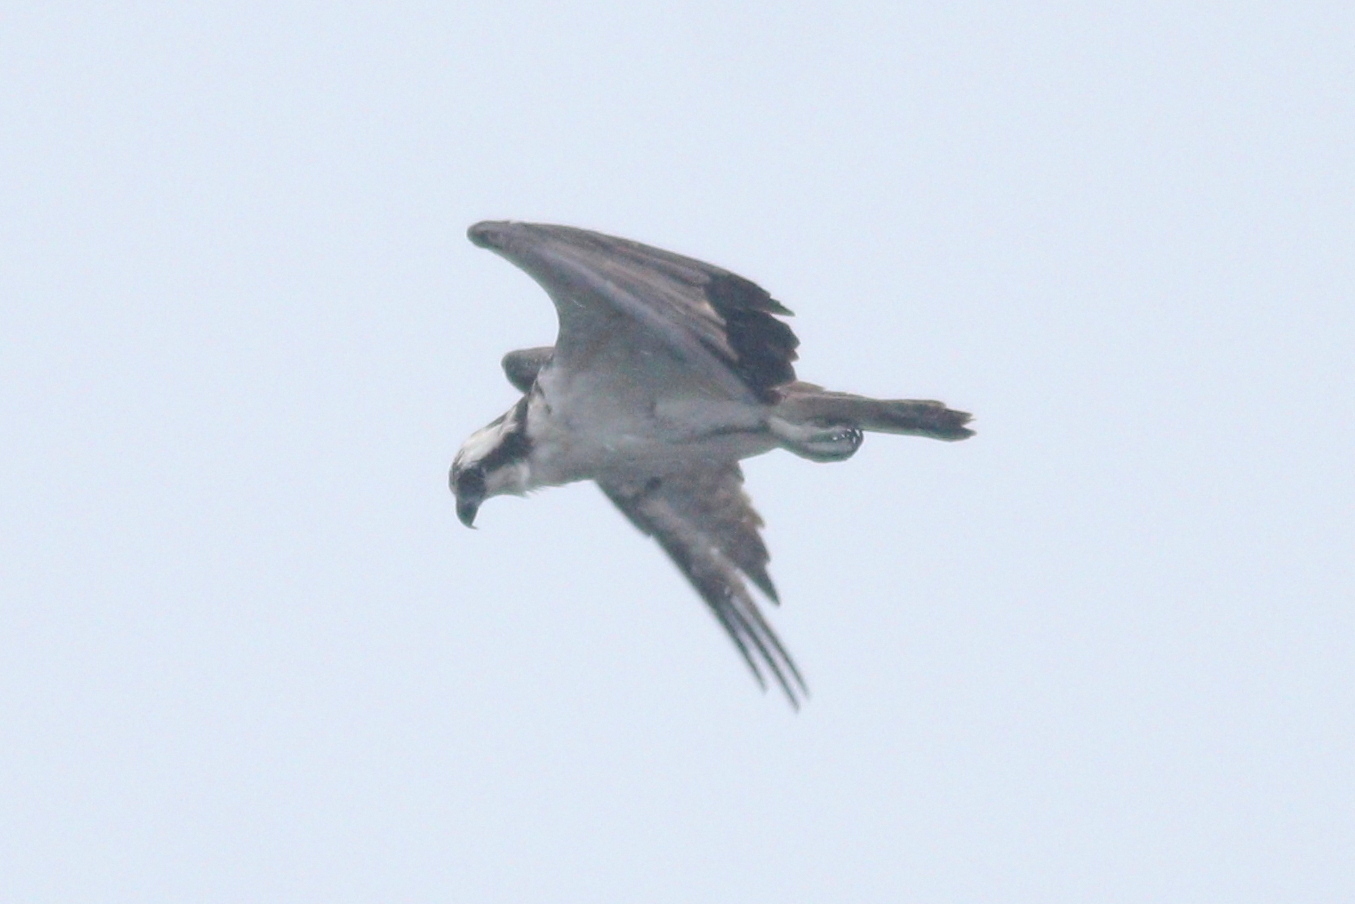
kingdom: Animalia
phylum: Chordata
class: Aves
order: Accipitriformes
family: Pandionidae
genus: Pandion
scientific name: Pandion haliaetus
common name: Osprey
